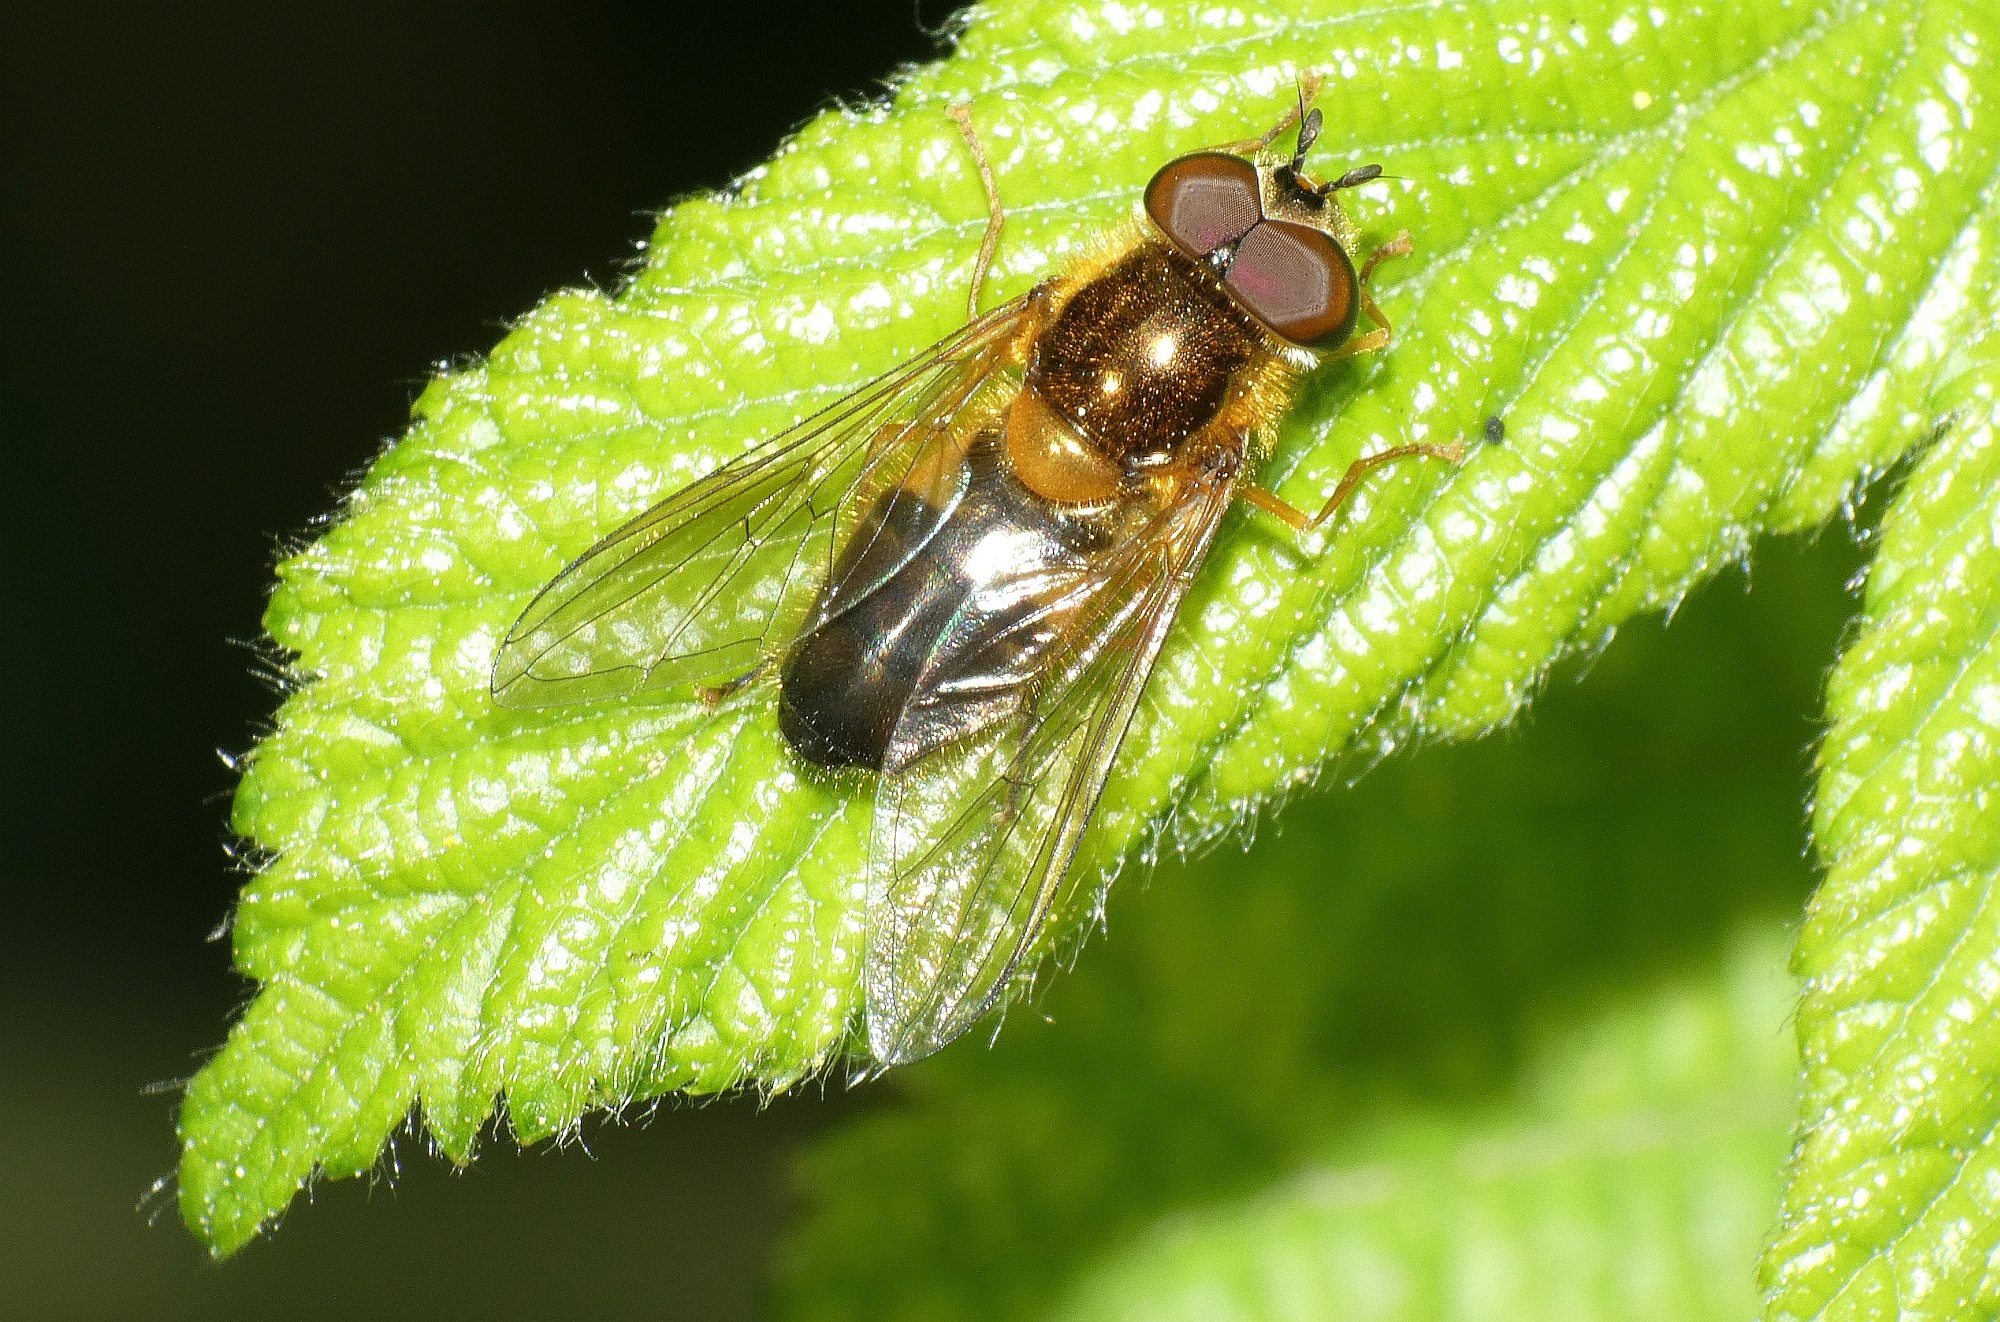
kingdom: Animalia
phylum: Arthropoda
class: Insecta
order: Diptera
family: Syrphidae
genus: Epistrophe
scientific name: Epistrophe eligans
